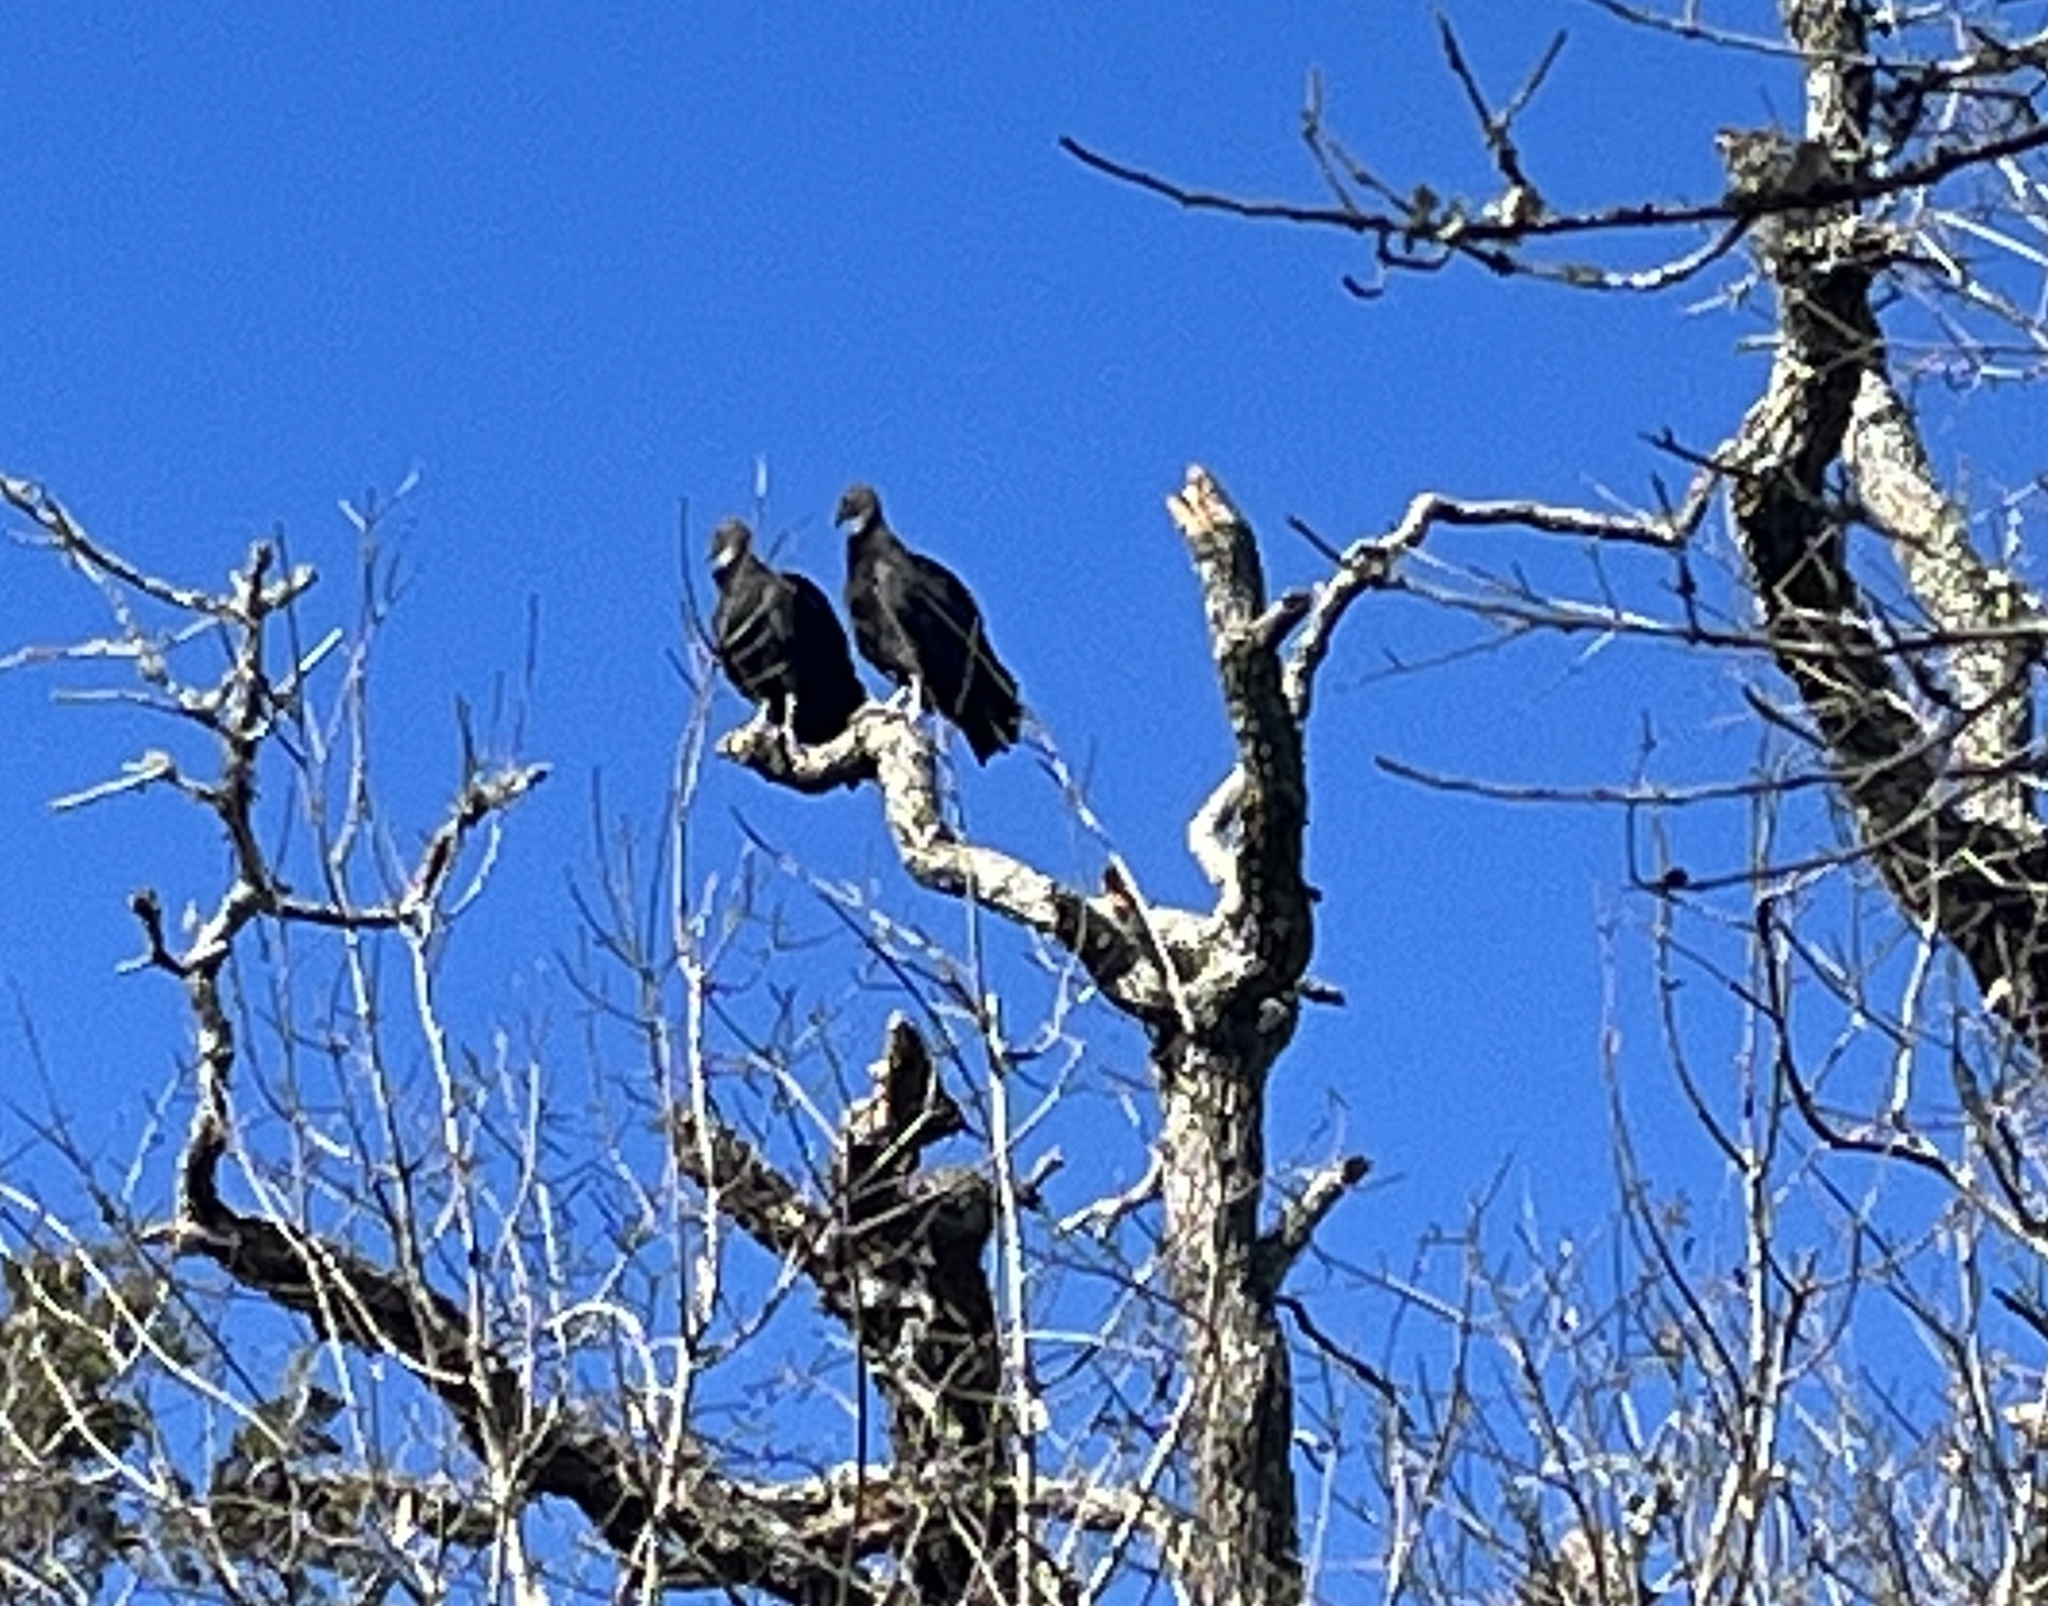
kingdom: Animalia
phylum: Chordata
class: Aves
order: Accipitriformes
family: Cathartidae
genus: Coragyps
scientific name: Coragyps atratus
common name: Black vulture
